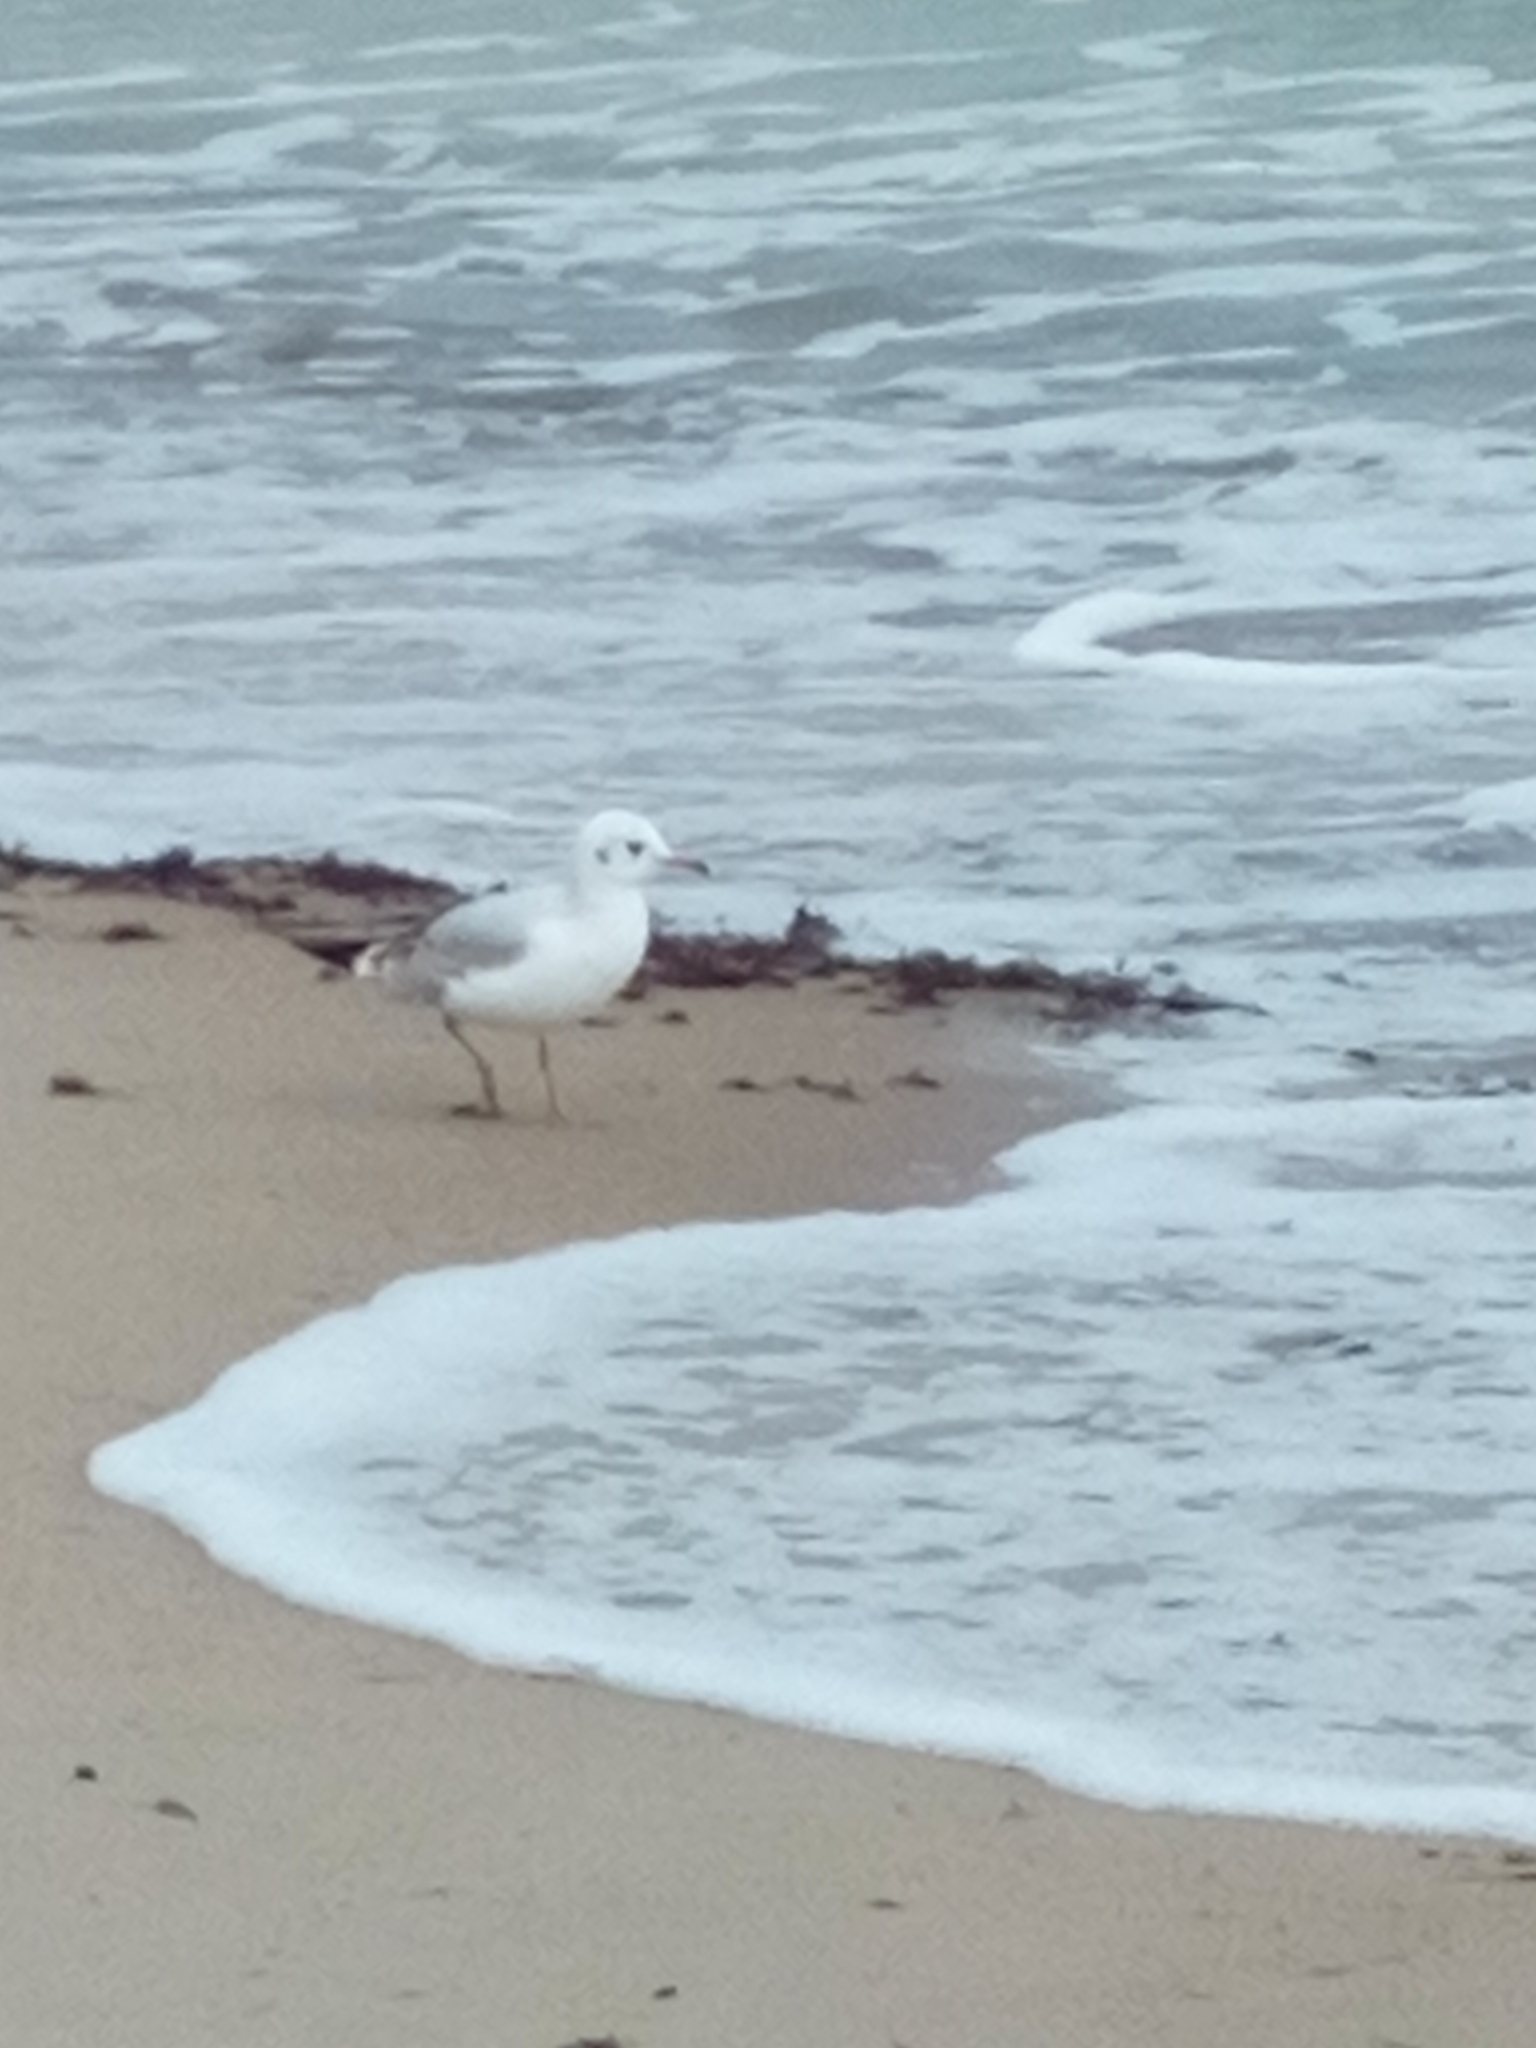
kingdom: Animalia
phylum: Chordata
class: Aves
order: Charadriiformes
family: Laridae
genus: Chroicocephalus
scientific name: Chroicocephalus ridibundus
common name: Black-headed gull
